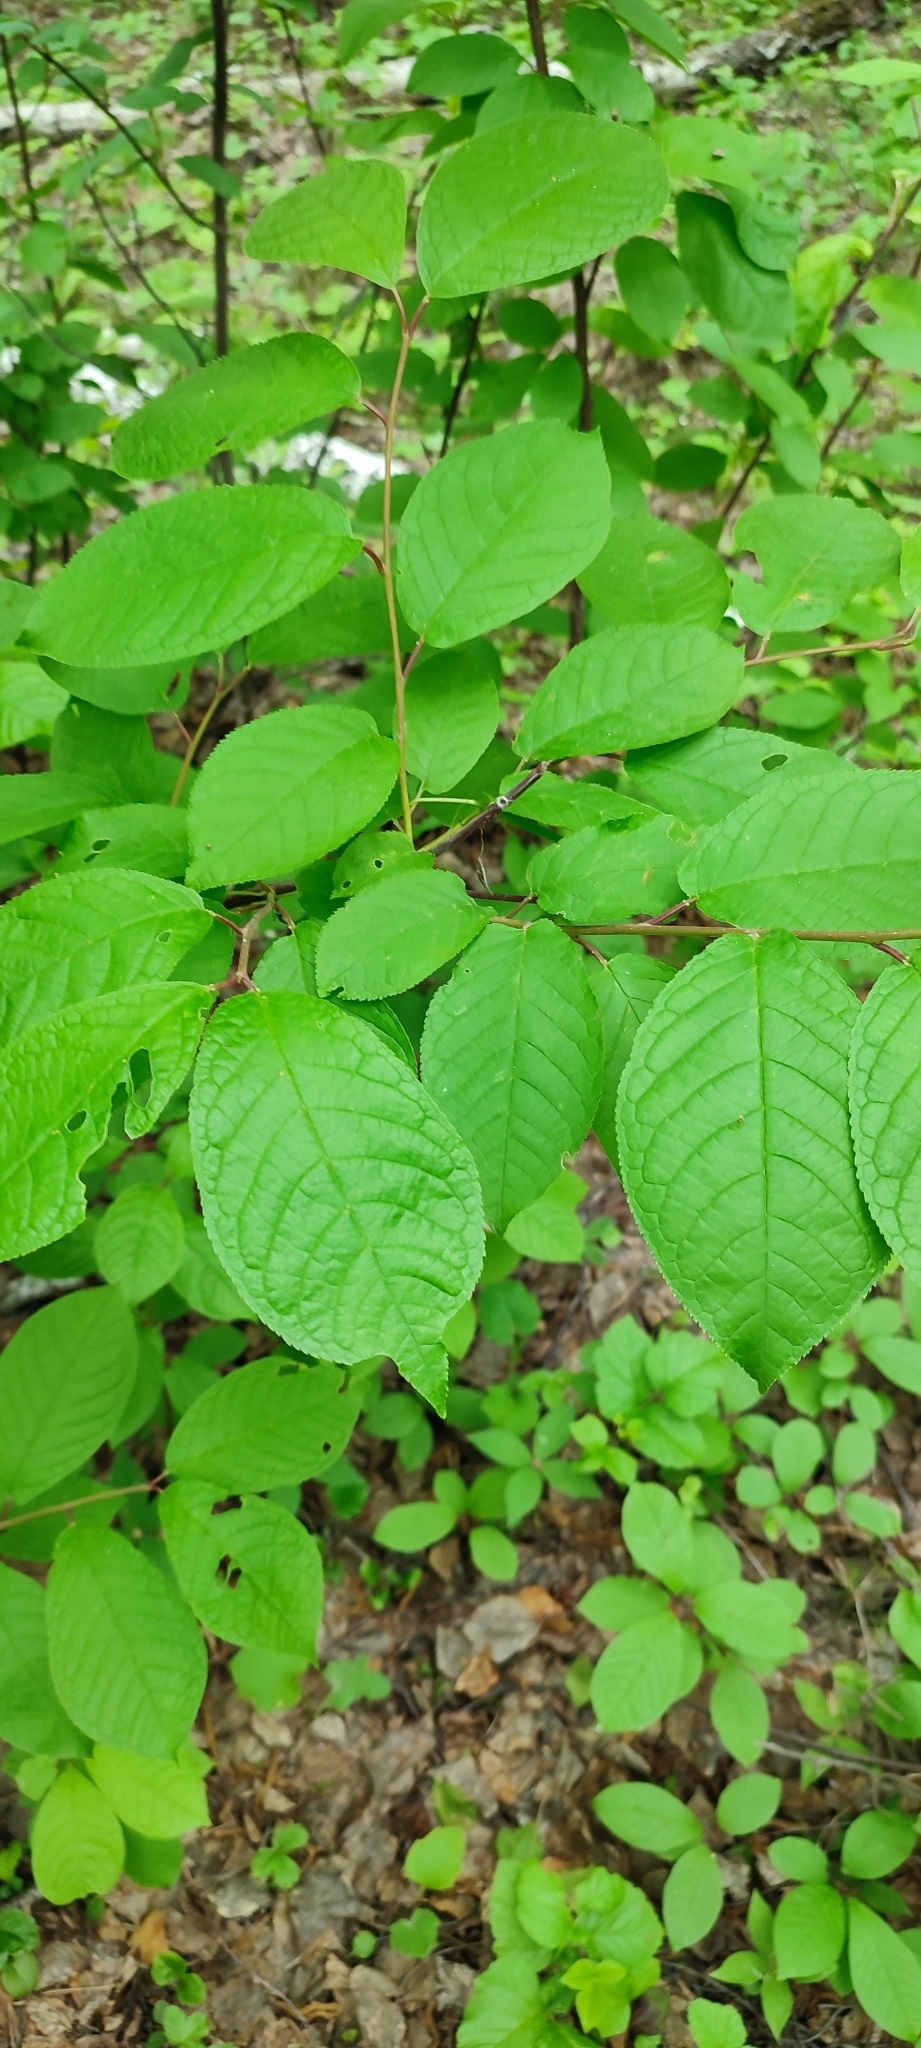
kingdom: Plantae
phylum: Tracheophyta
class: Magnoliopsida
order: Rosales
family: Rosaceae
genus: Prunus
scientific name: Prunus padus
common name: Bird cherry
